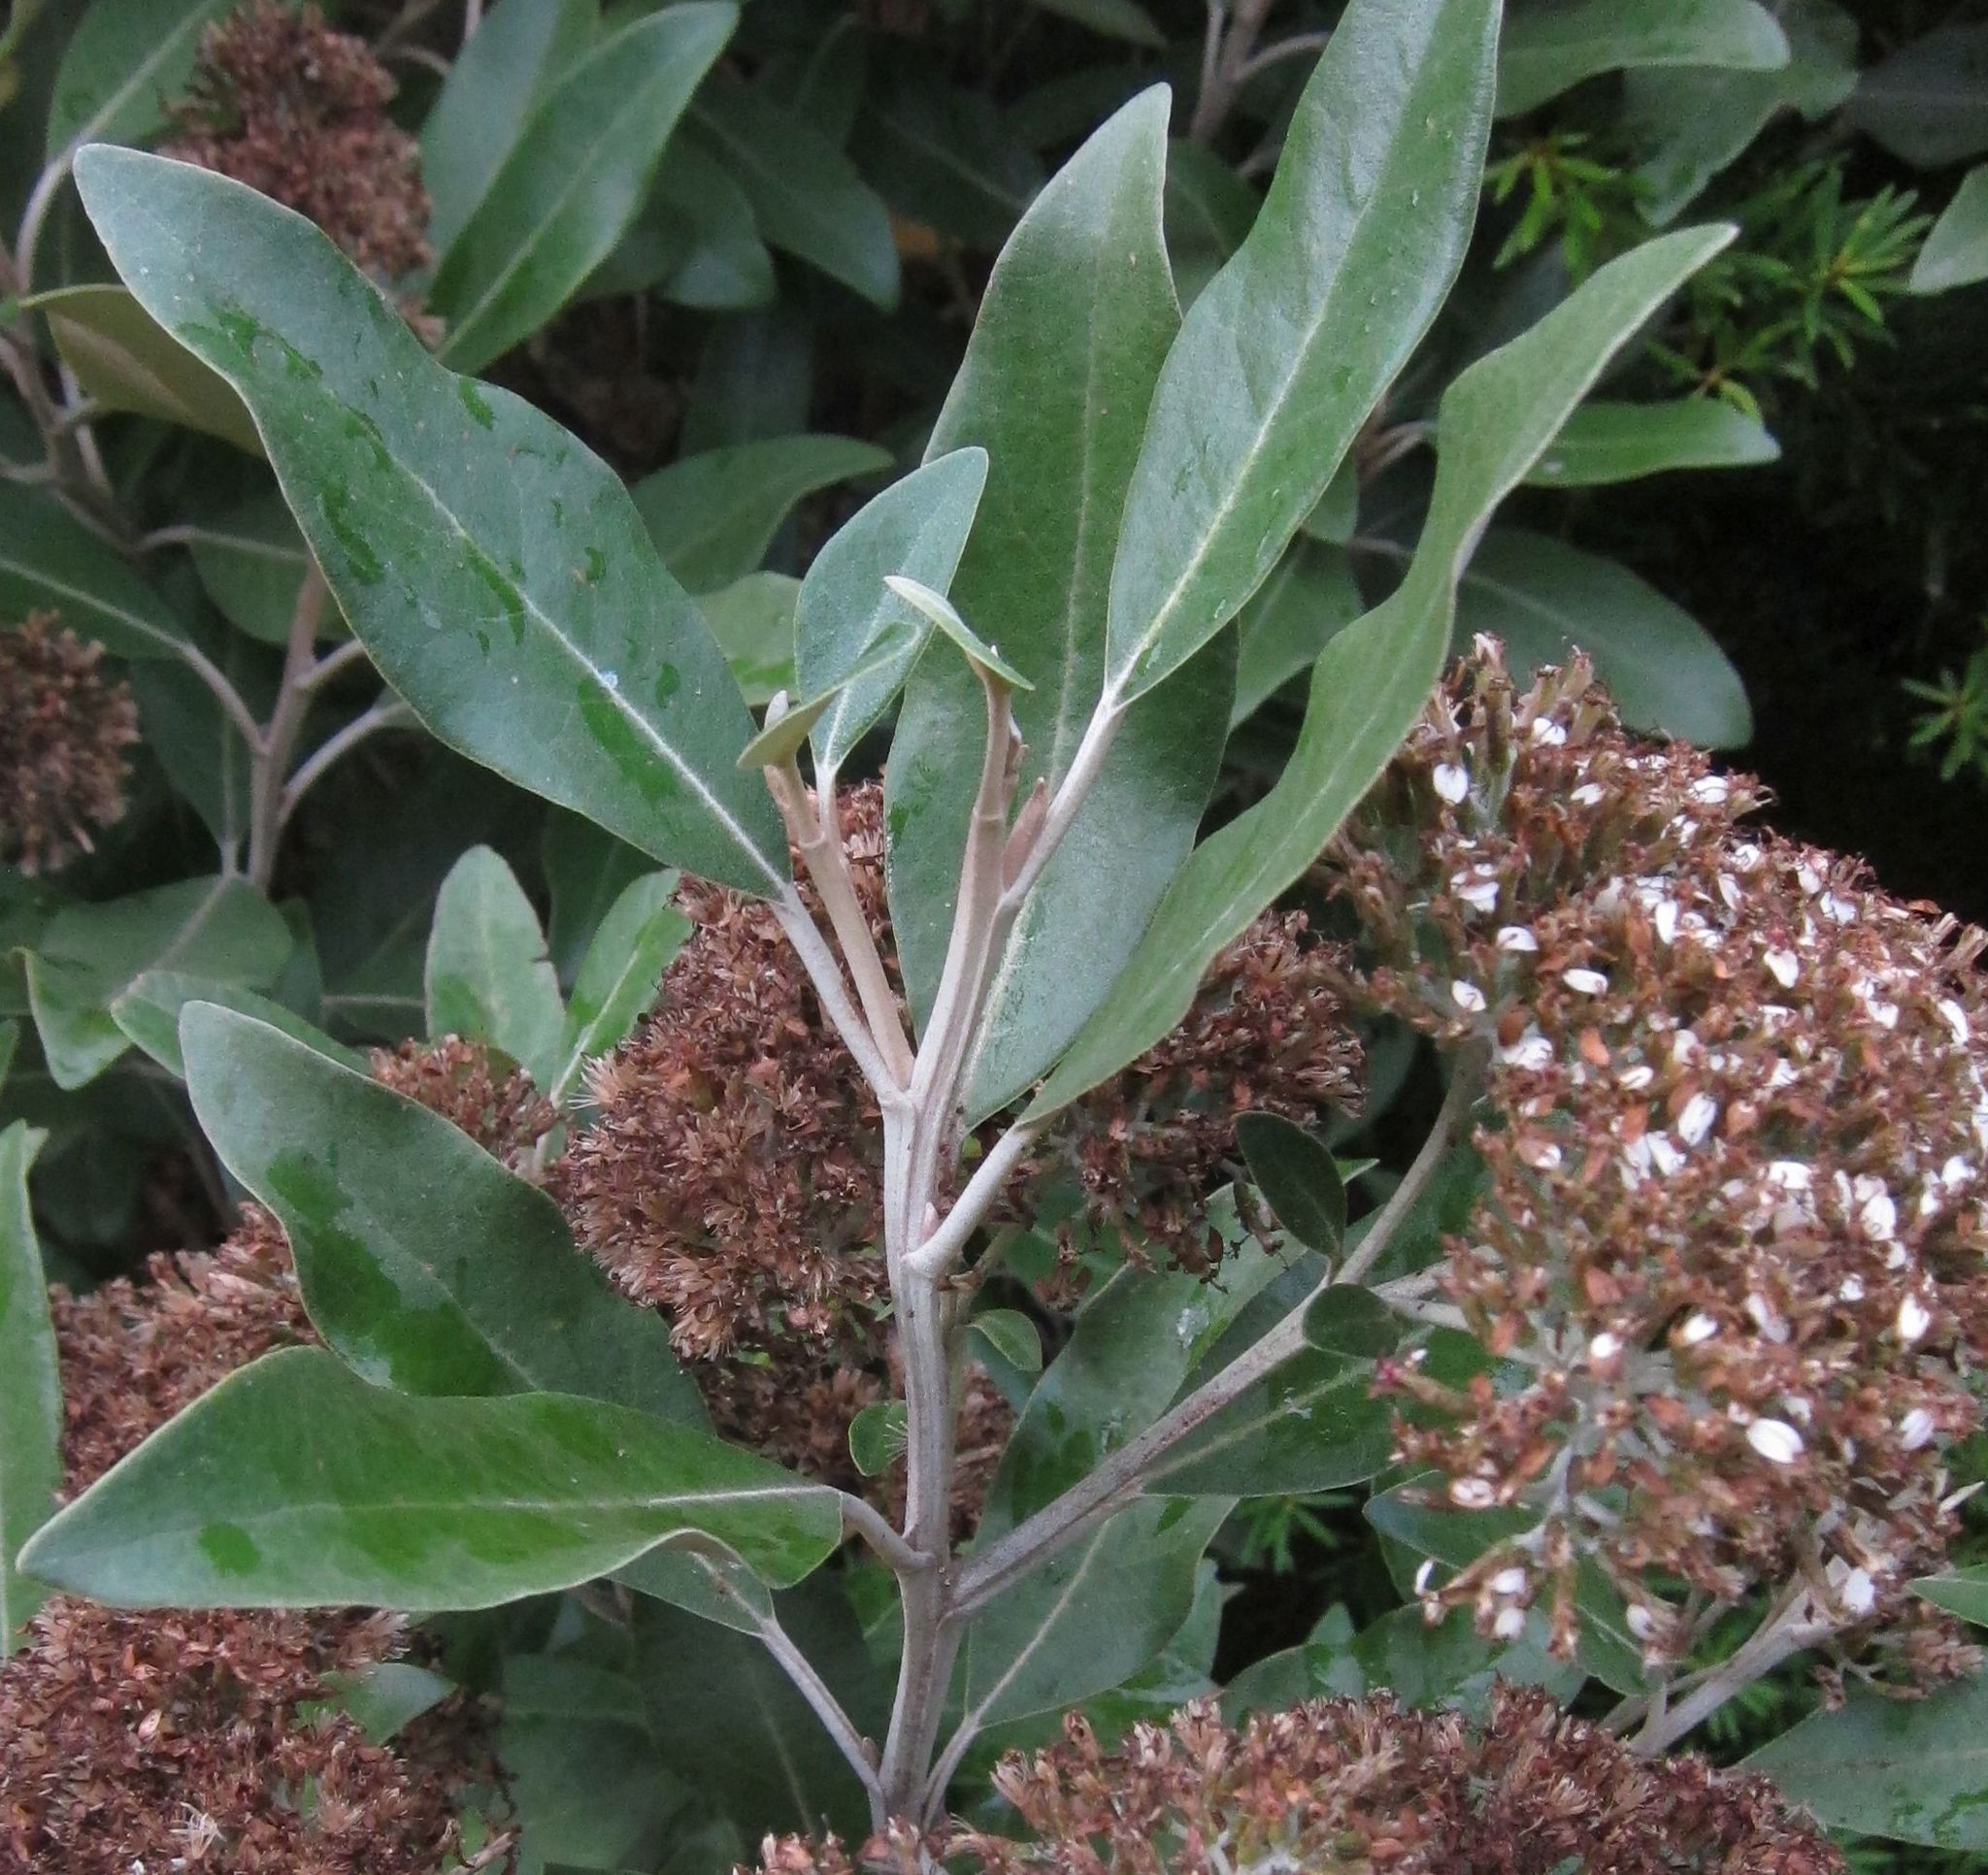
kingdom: Plantae
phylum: Tracheophyta
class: Magnoliopsida
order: Asterales
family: Asteraceae
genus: Olearia
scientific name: Olearia avicenniifolia
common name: Mangrove-leaf daisybush
